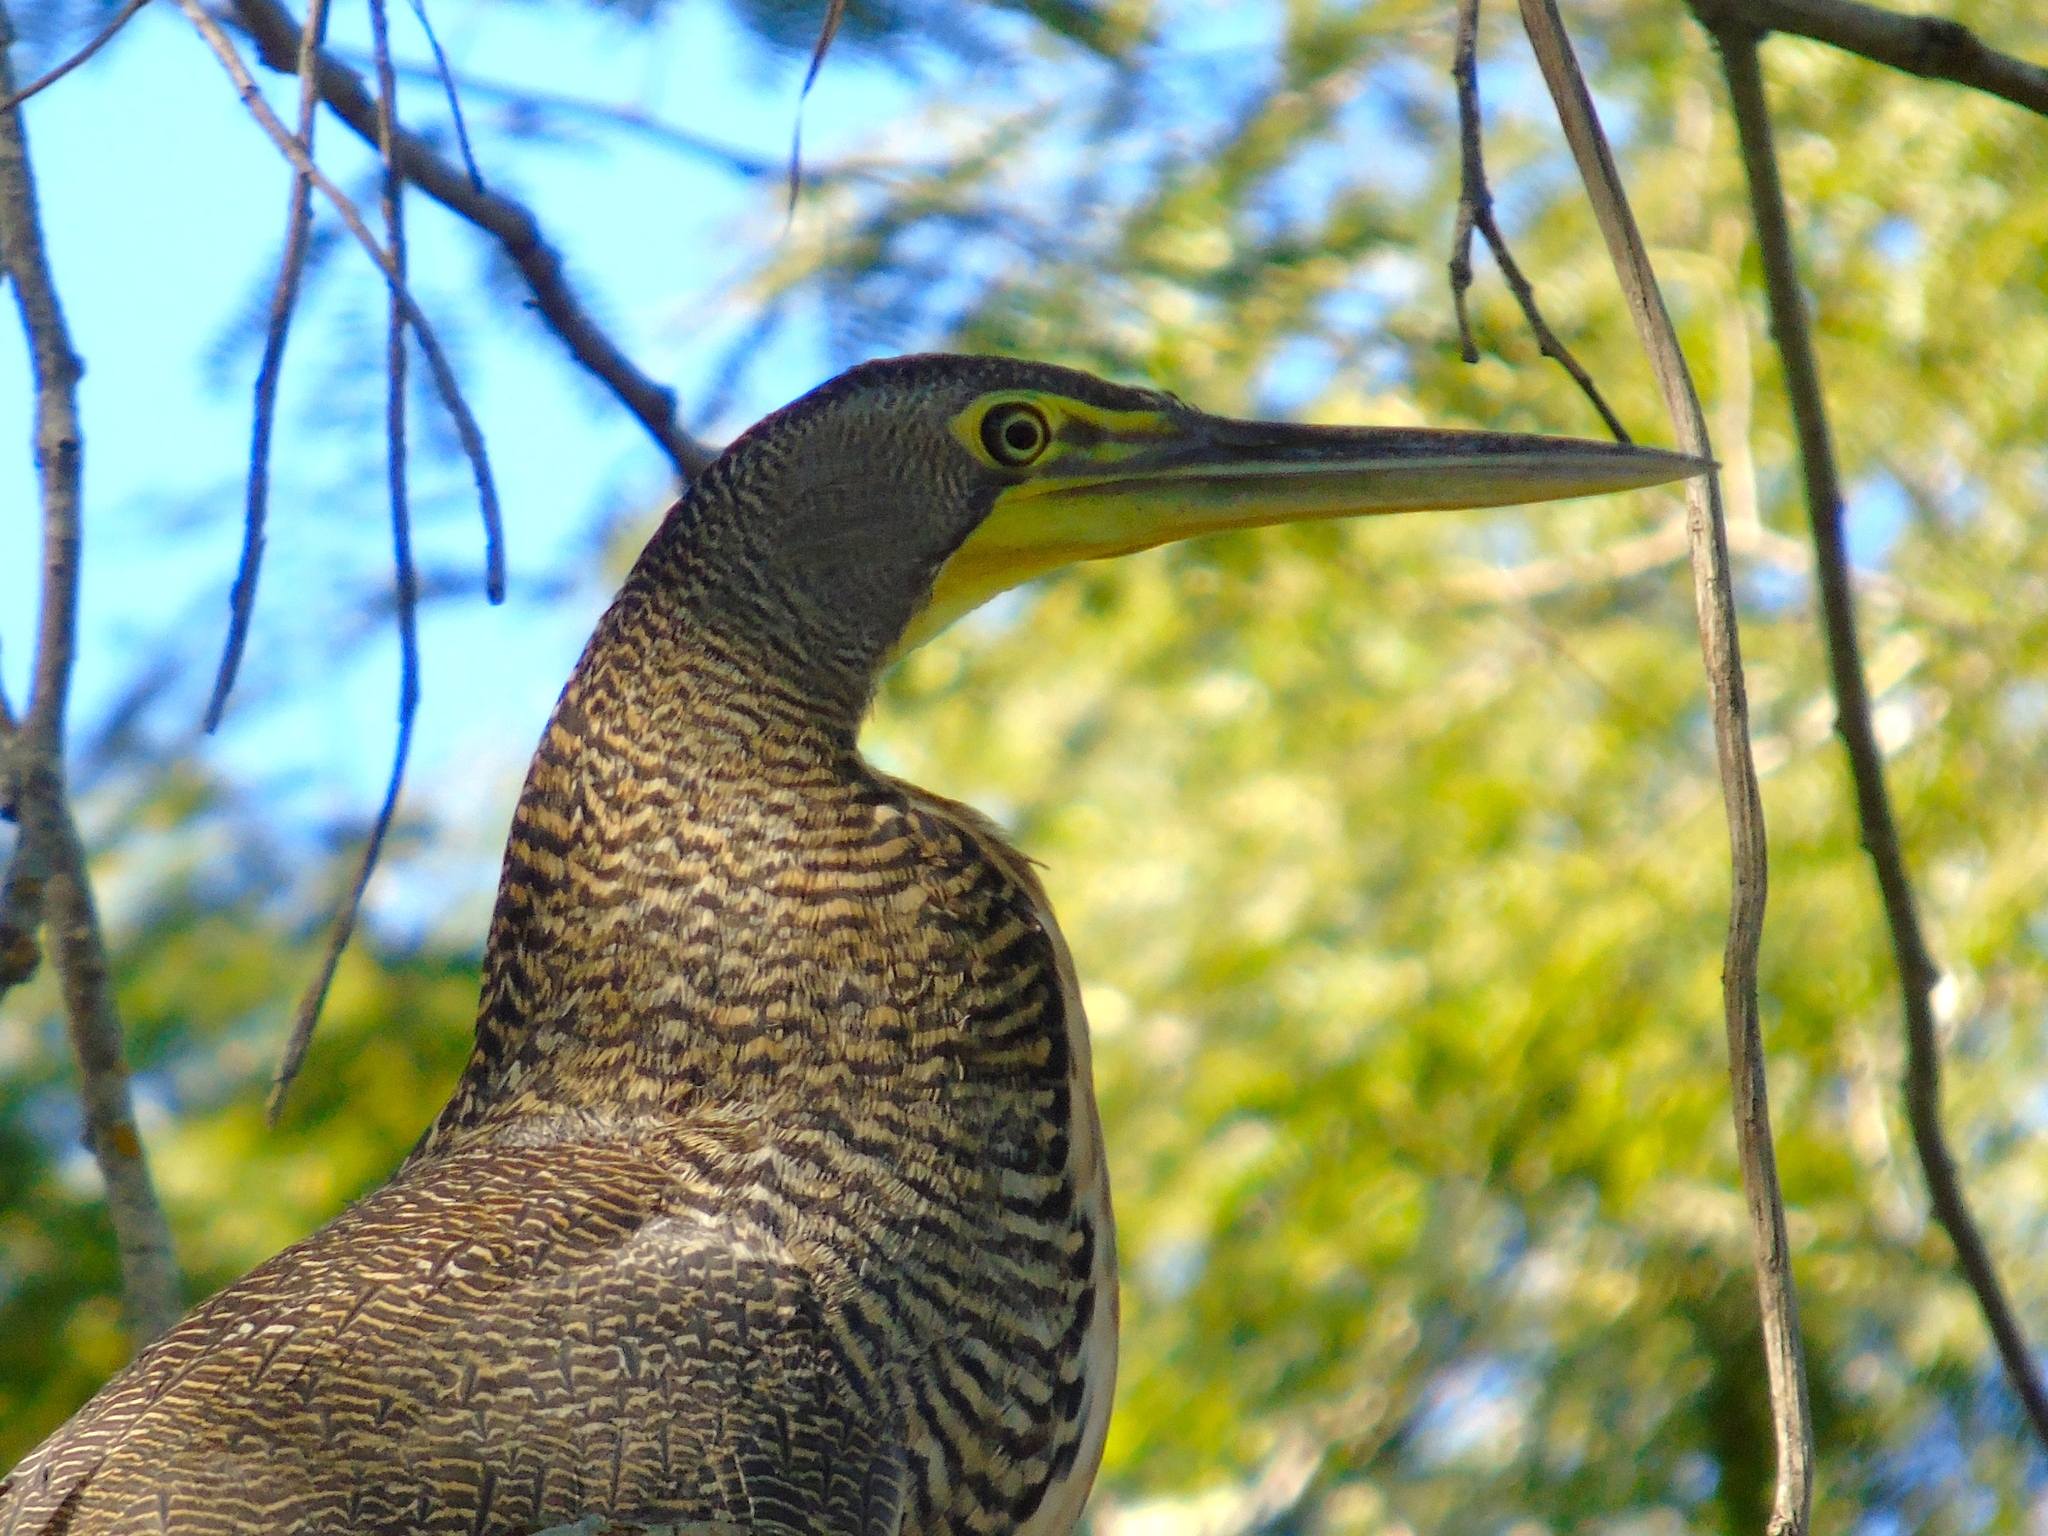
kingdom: Animalia
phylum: Chordata
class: Aves
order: Pelecaniformes
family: Ardeidae
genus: Tigrisoma
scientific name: Tigrisoma mexicanum
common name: Bare-throated tiger-heron
